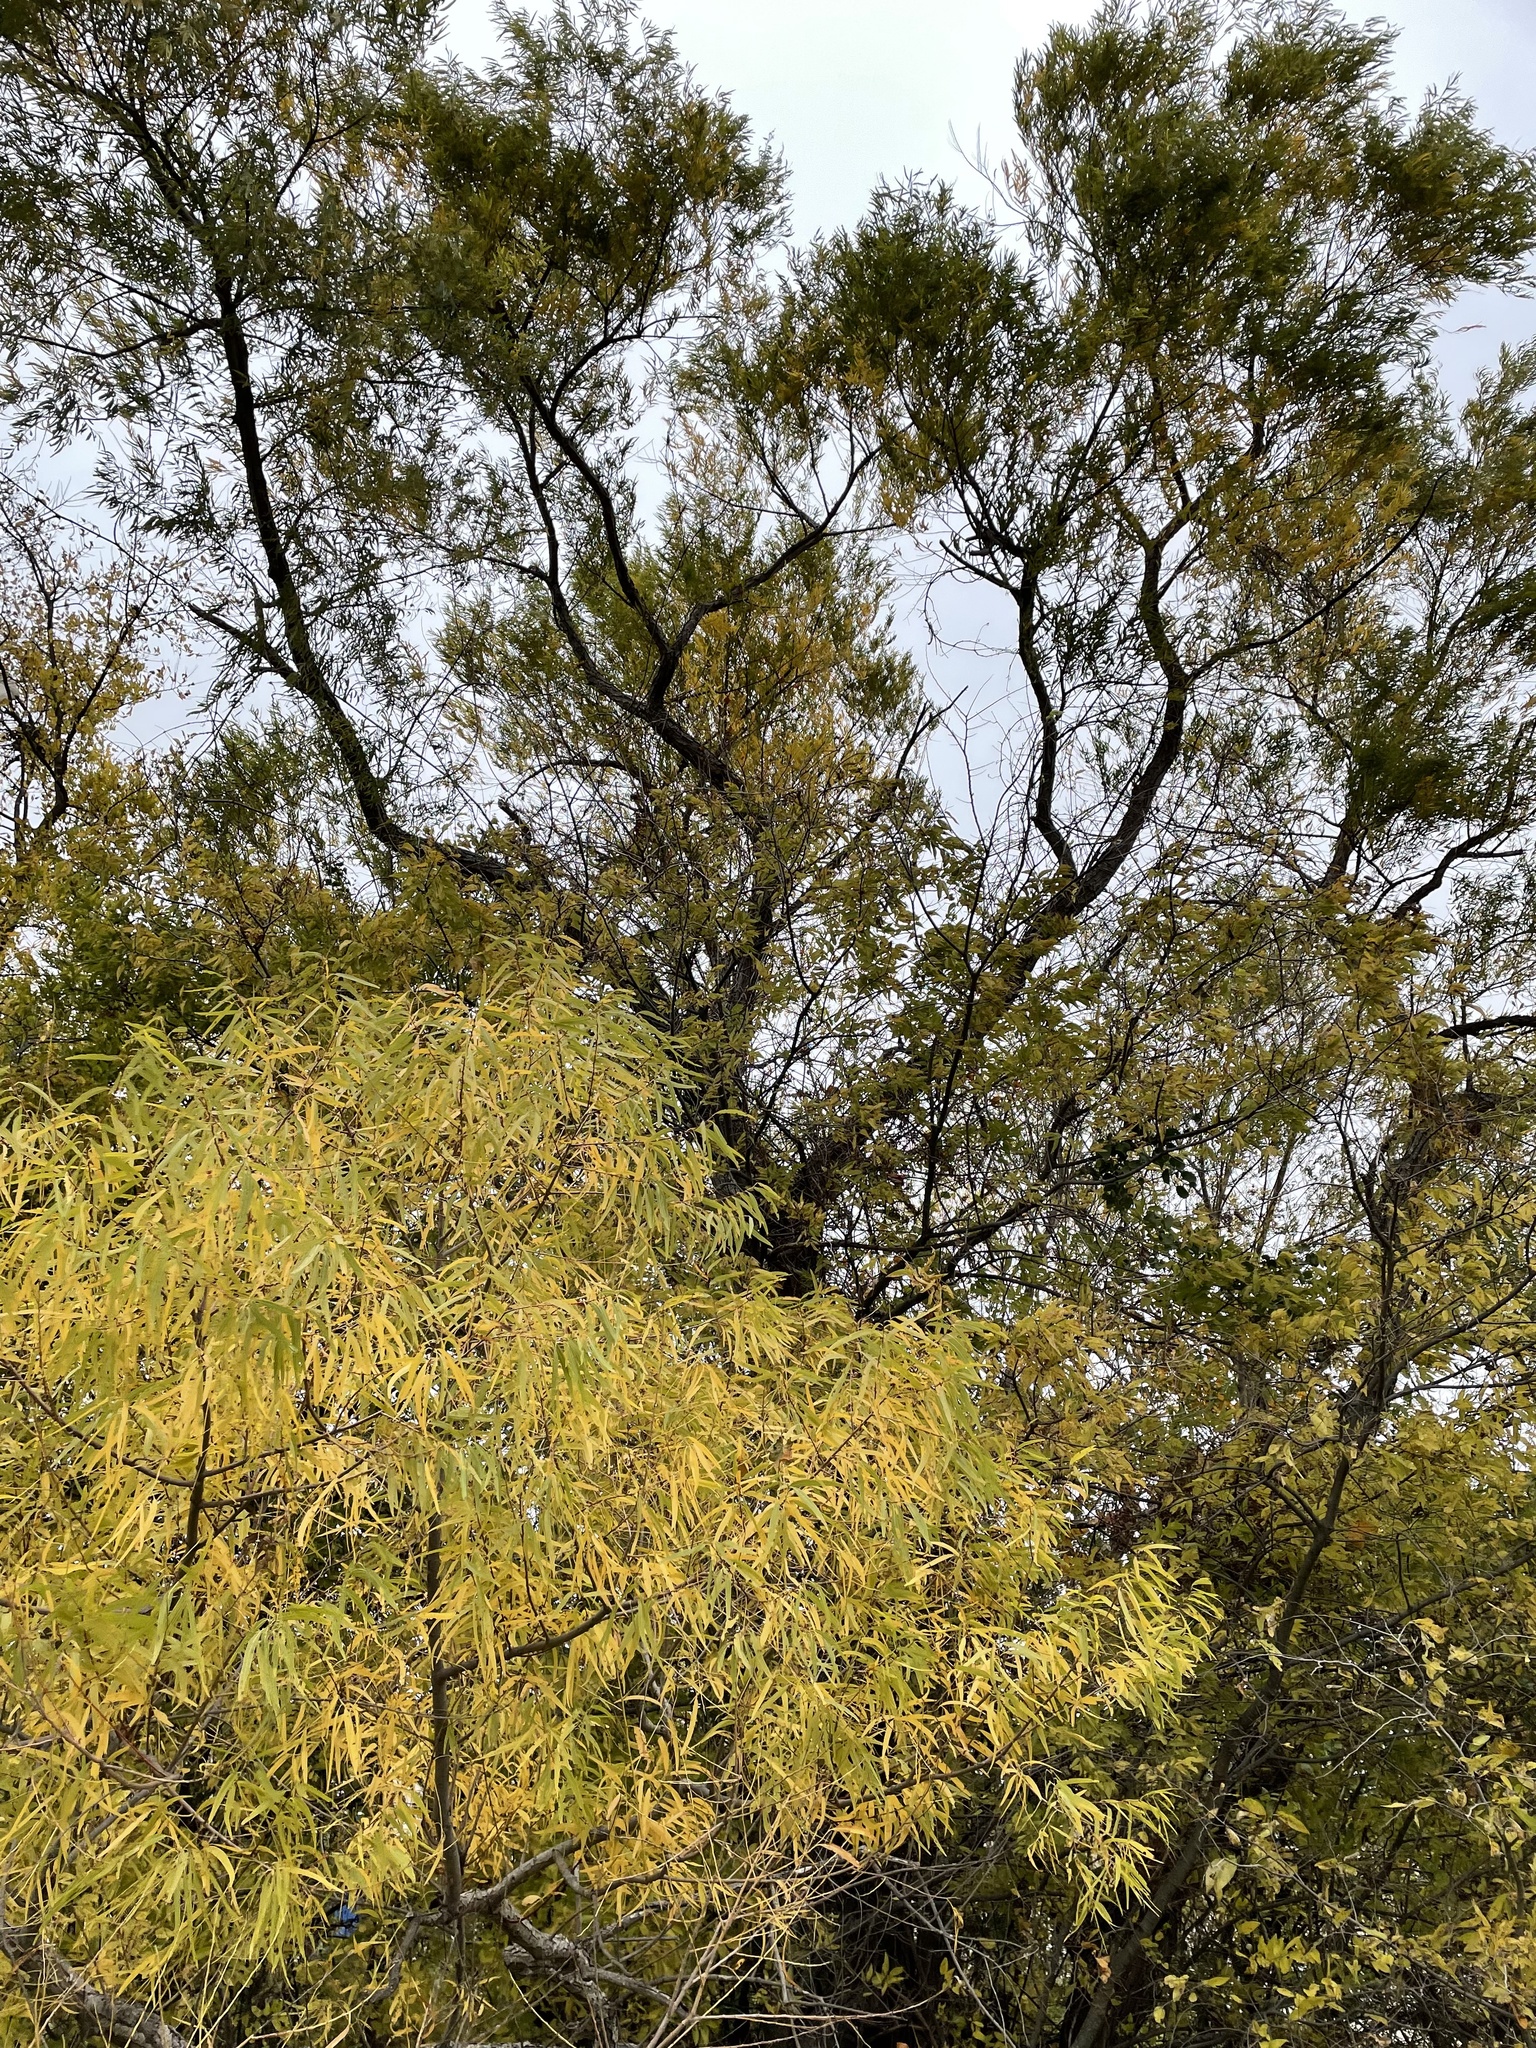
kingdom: Plantae
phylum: Tracheophyta
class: Magnoliopsida
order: Malpighiales
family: Salicaceae
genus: Salix
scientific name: Salix nigra
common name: Black willow
